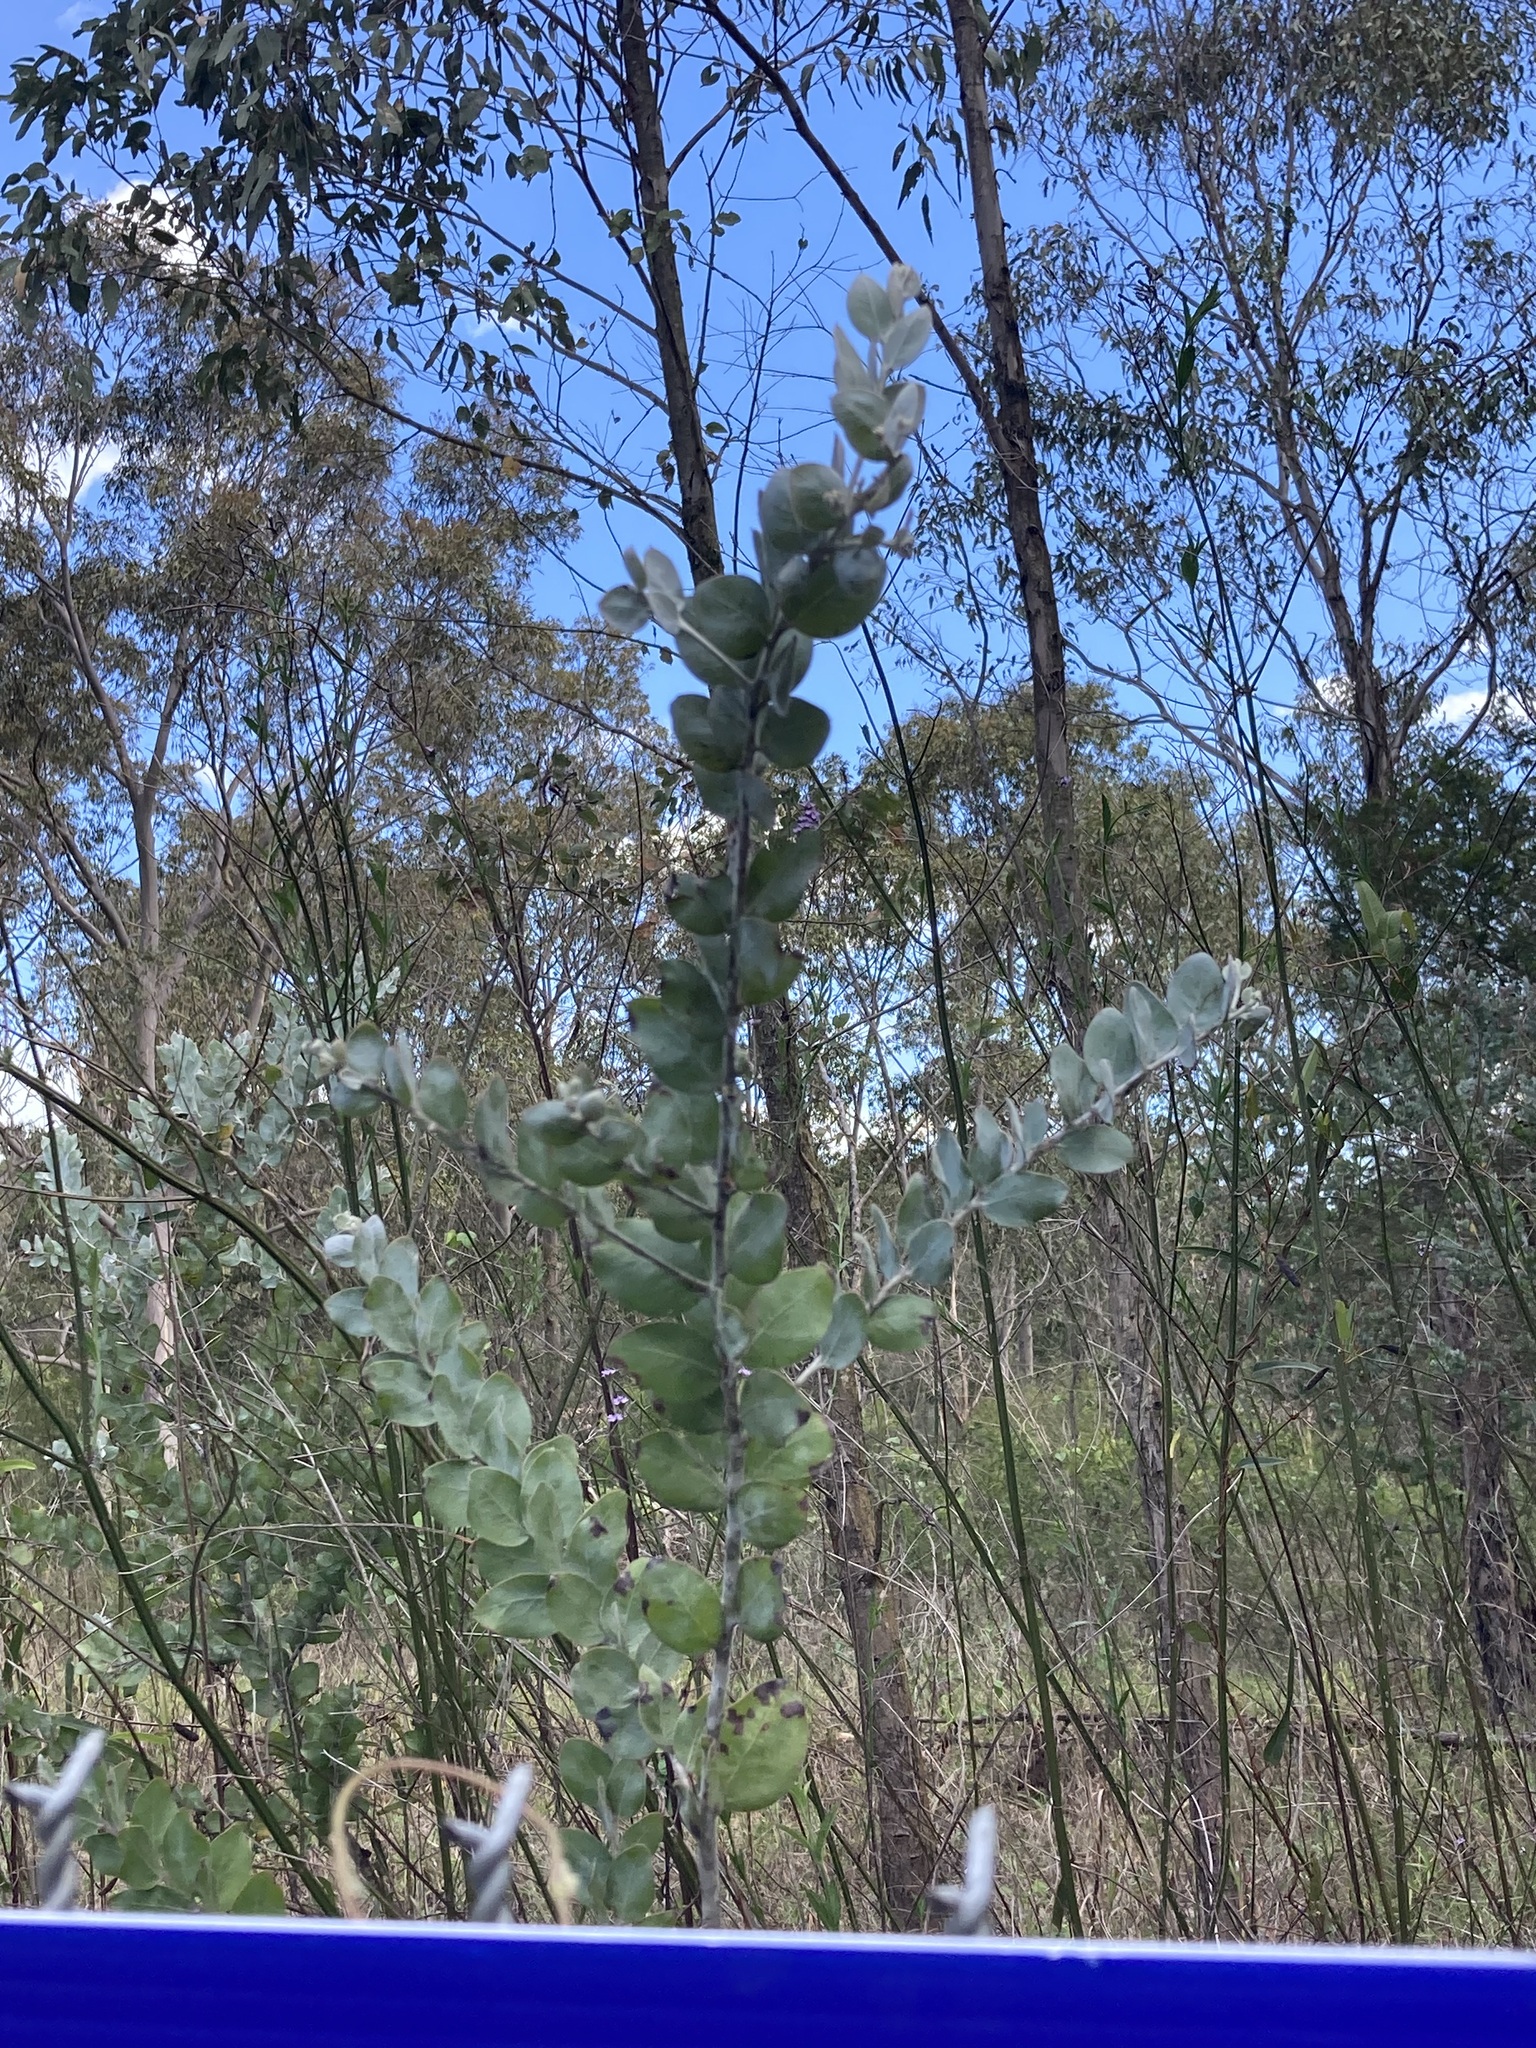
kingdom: Plantae
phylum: Tracheophyta
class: Magnoliopsida
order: Fabales
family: Fabaceae
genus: Acacia
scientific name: Acacia podalyriifolia
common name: Pearl wattle
